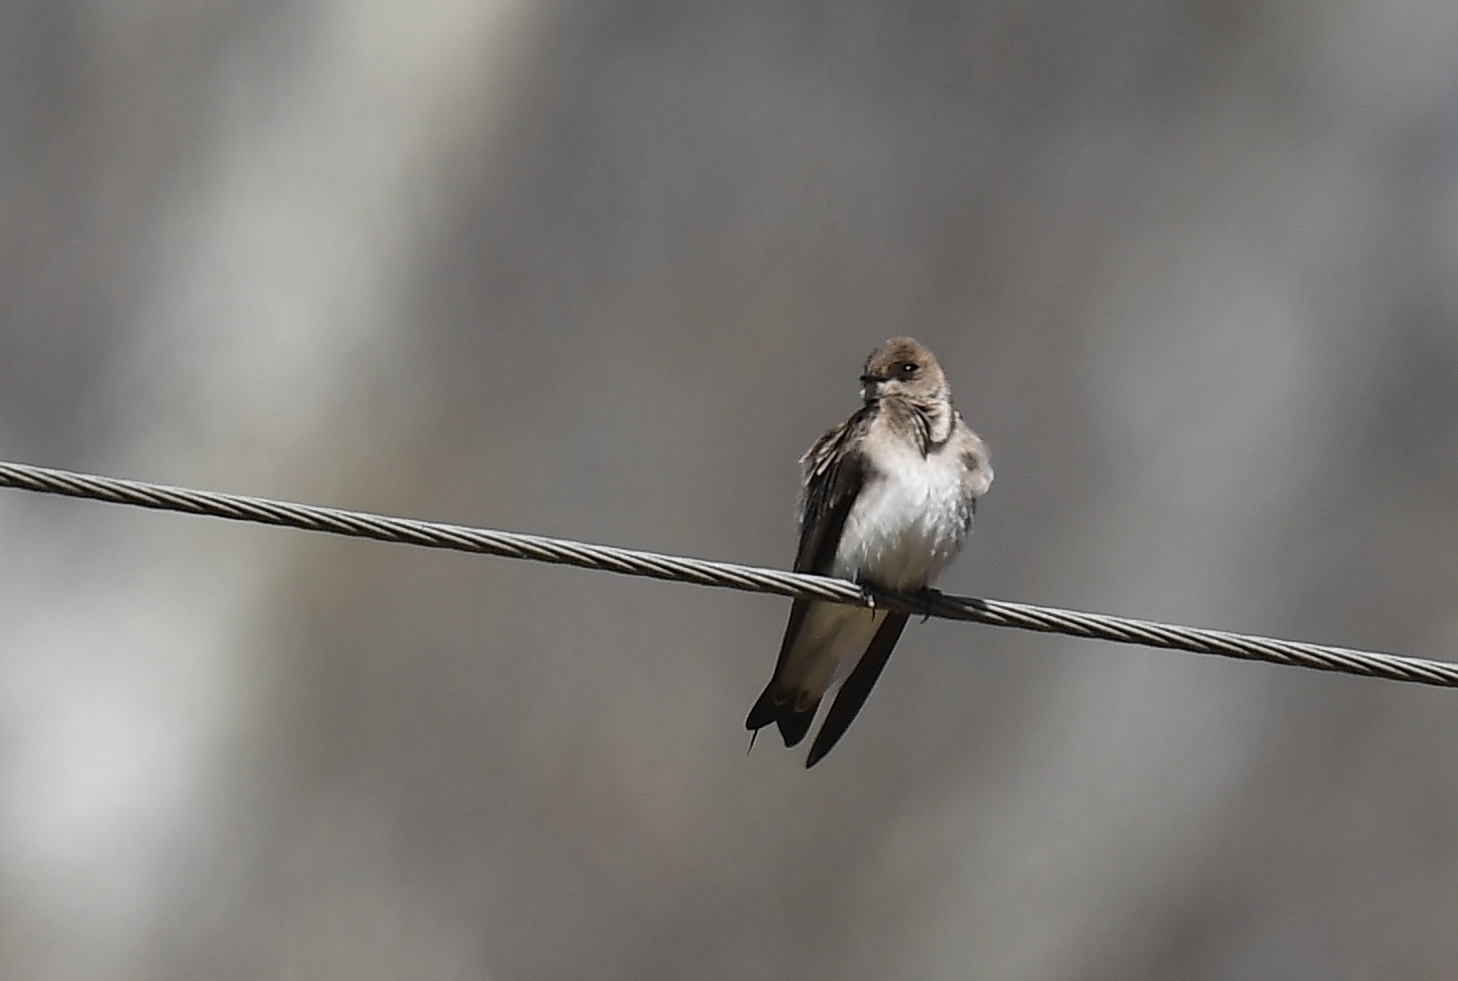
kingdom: Animalia
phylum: Chordata
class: Aves
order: Passeriformes
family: Hirundinidae
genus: Stelgidopteryx
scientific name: Stelgidopteryx serripennis
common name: Northern rough-winged swallow
